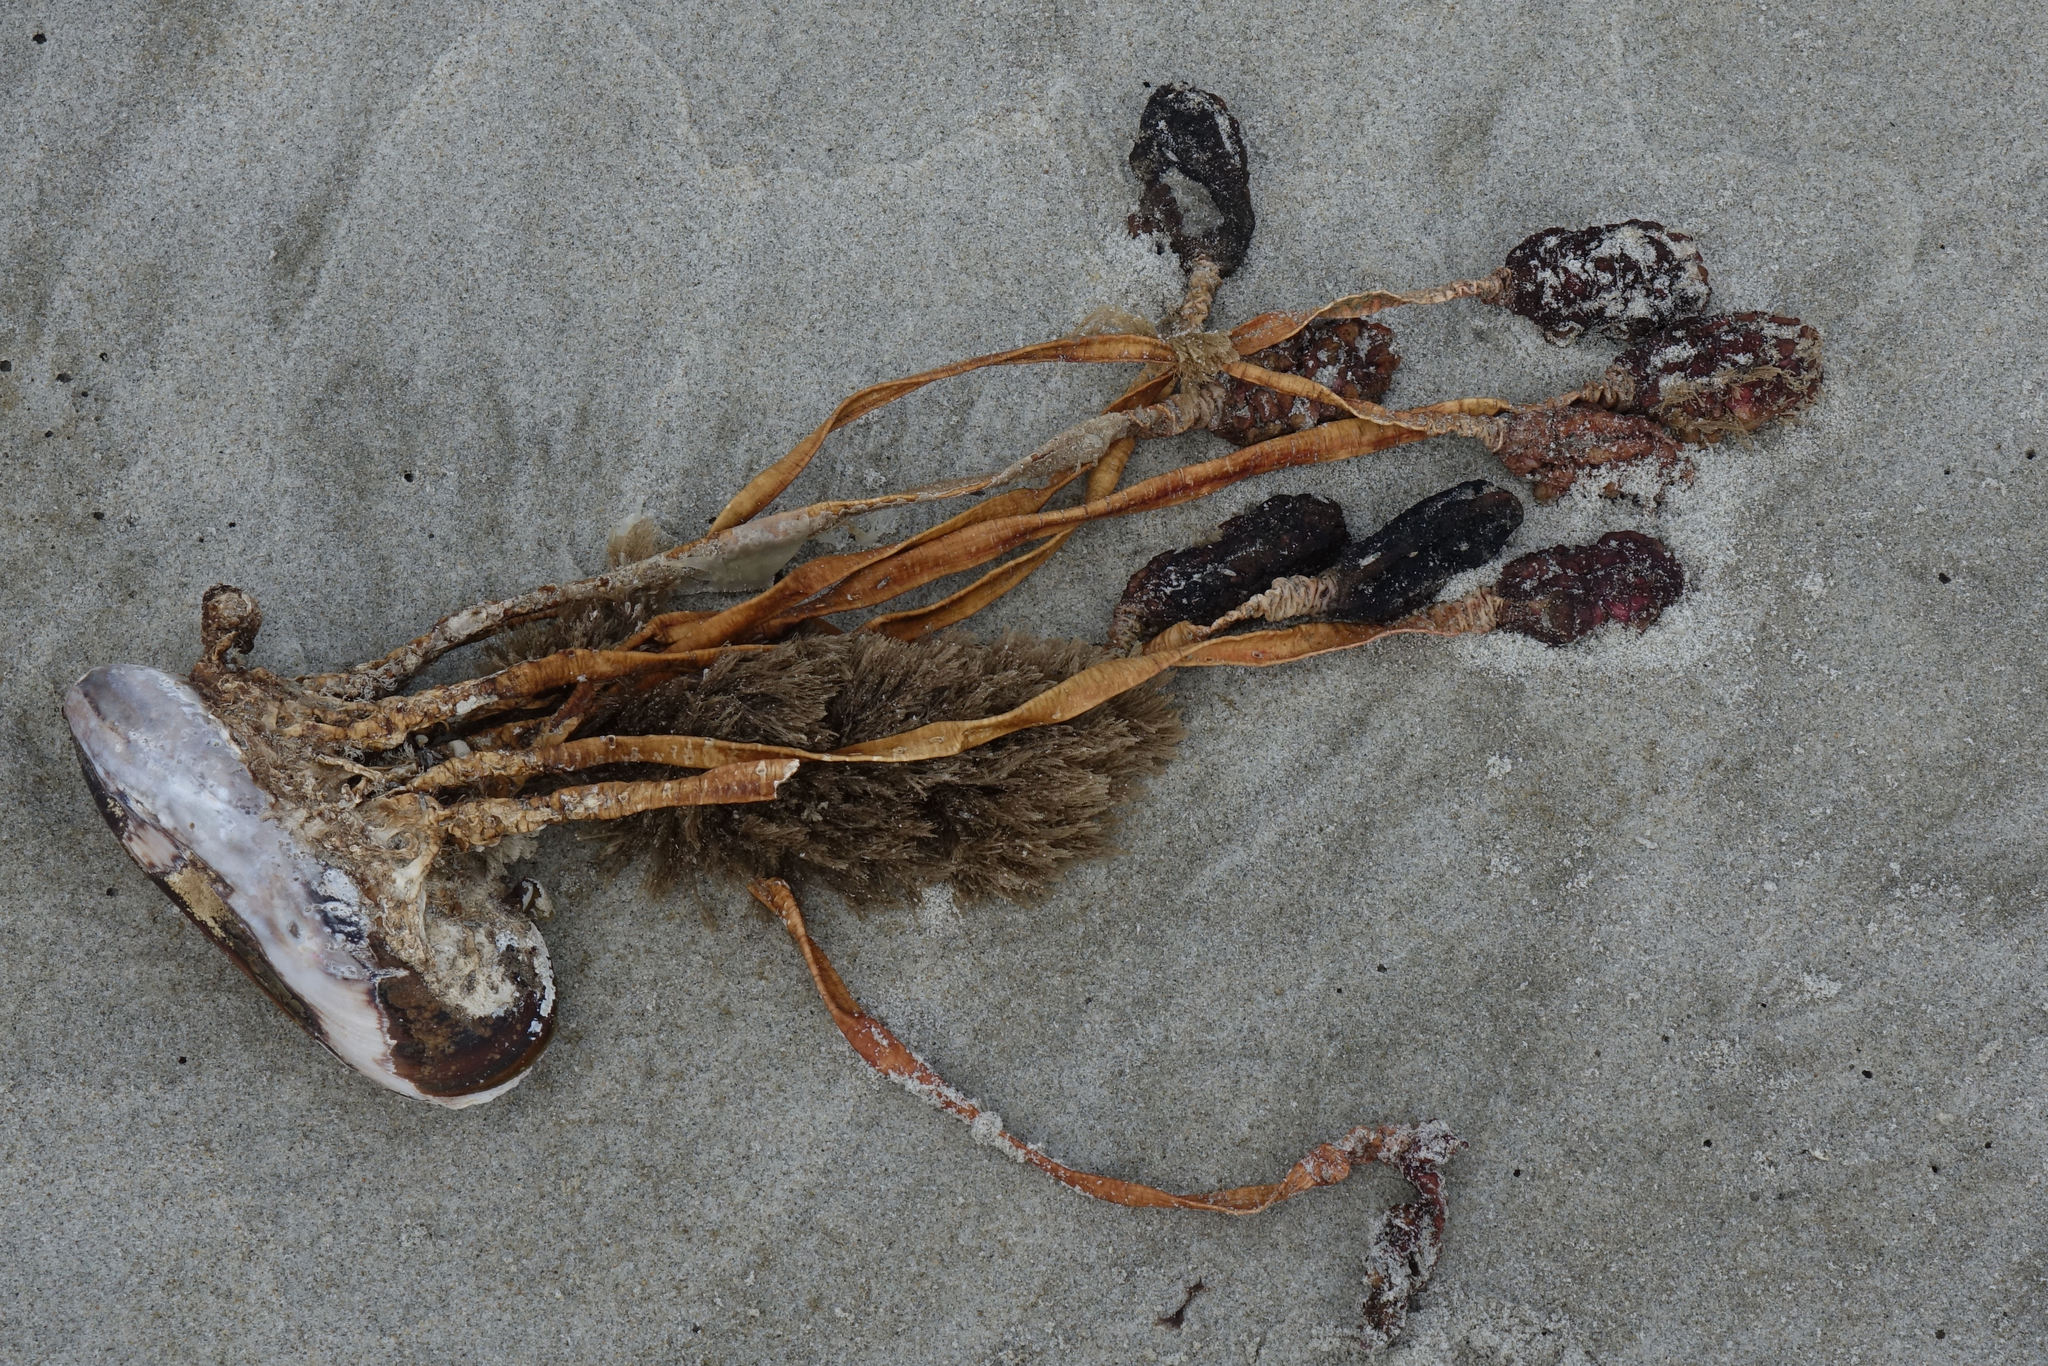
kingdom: Animalia
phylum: Chordata
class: Ascidiacea
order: Stolidobranchia
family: Pyuridae
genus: Pyura
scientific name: Pyura pachydermatina
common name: Sea tulip
